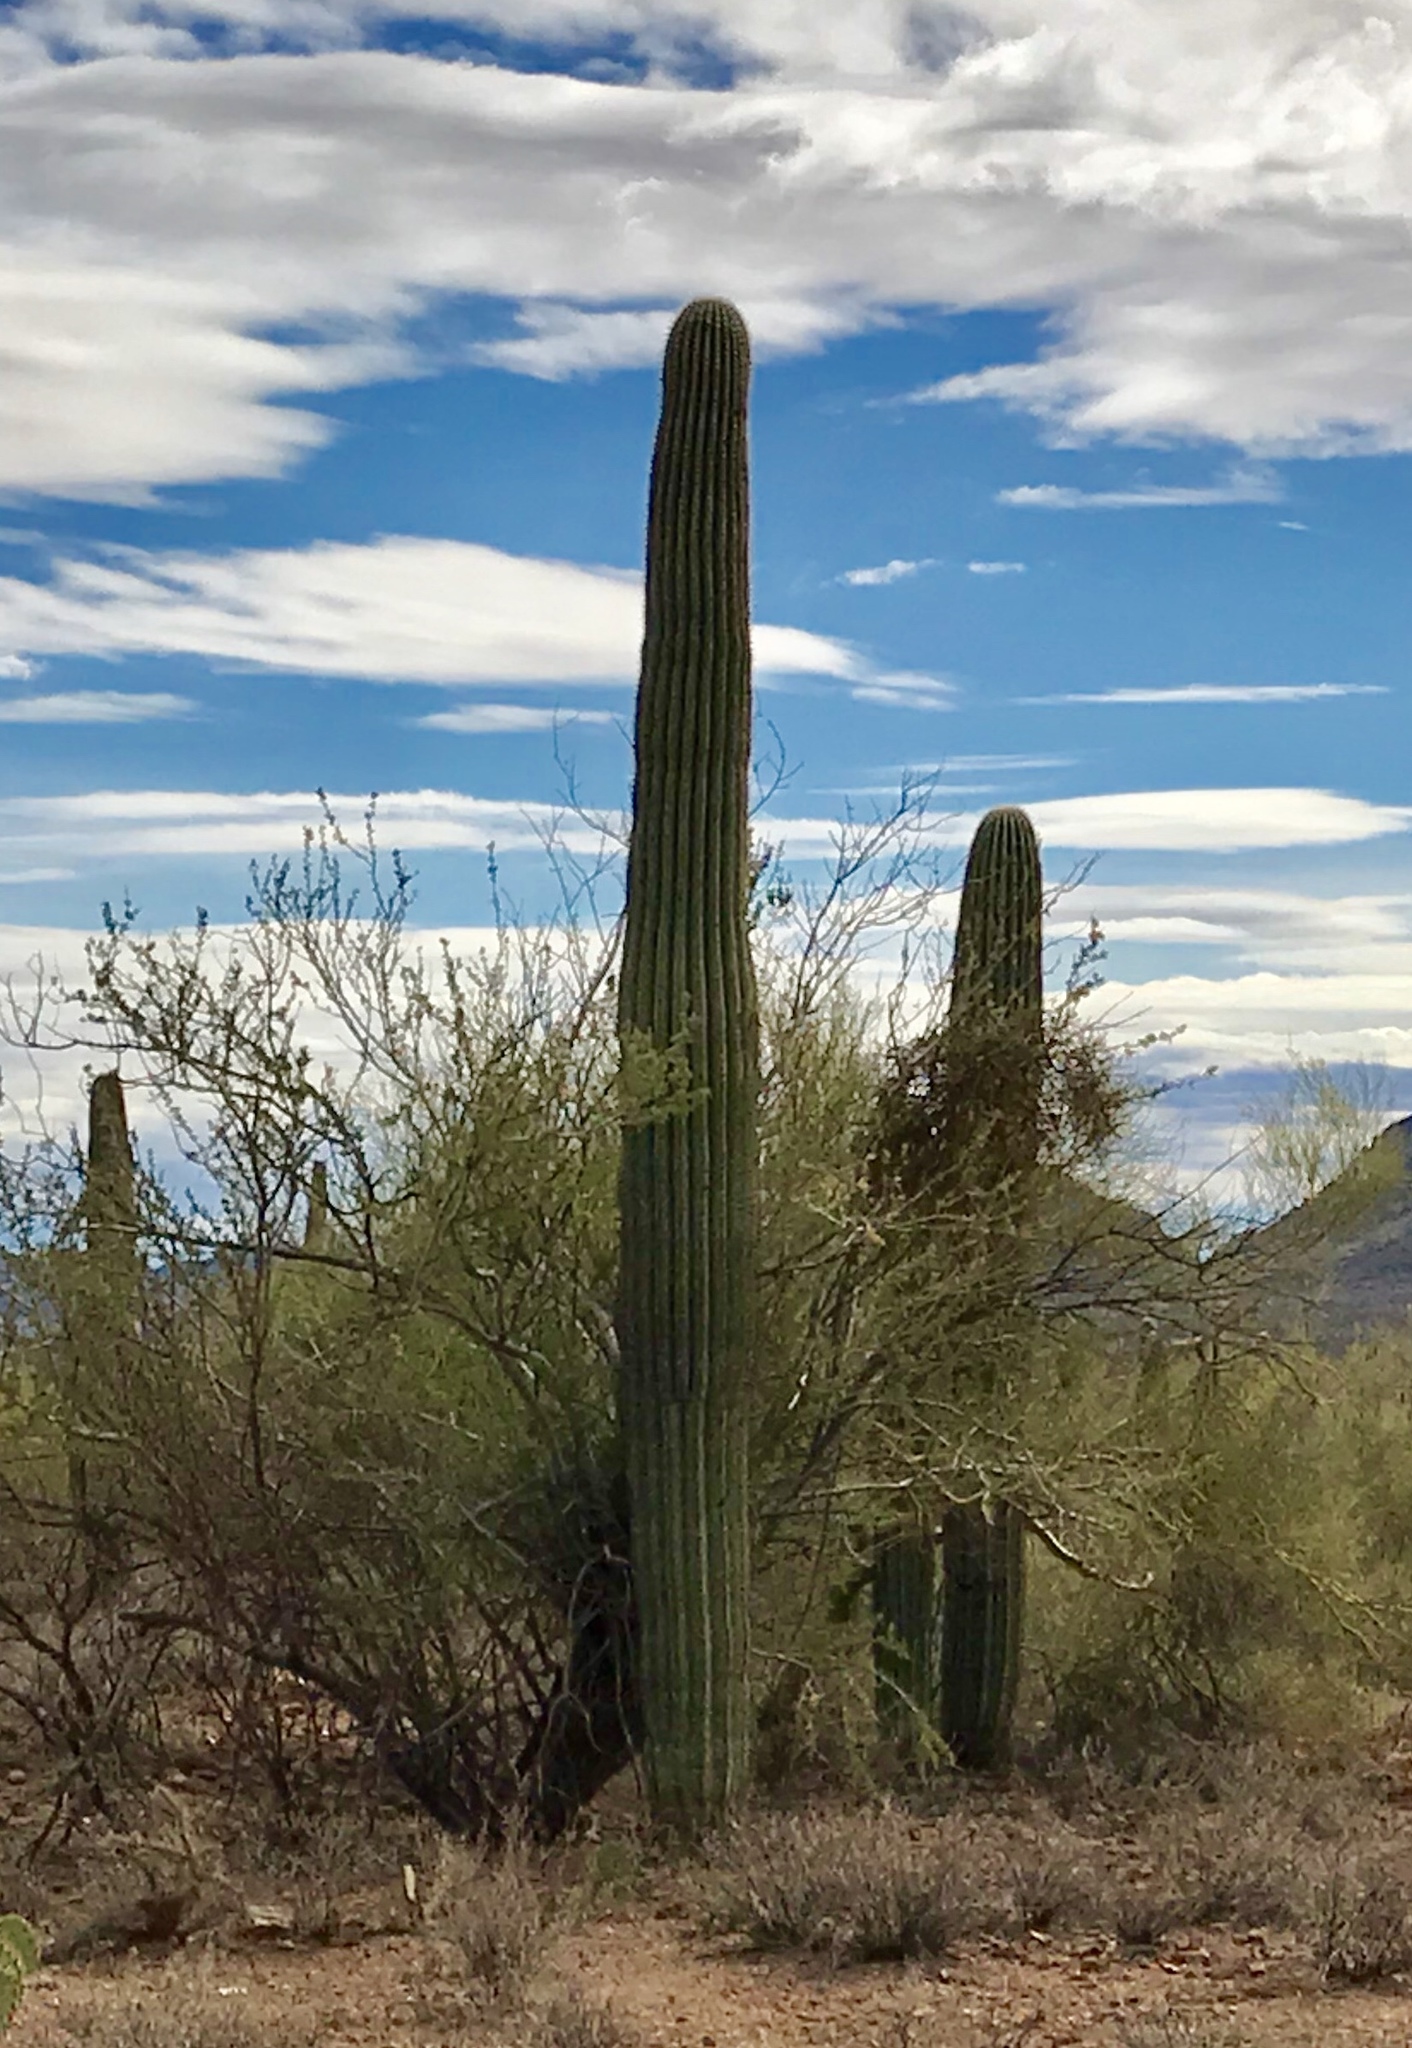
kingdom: Plantae
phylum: Tracheophyta
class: Magnoliopsida
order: Caryophyllales
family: Cactaceae
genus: Carnegiea
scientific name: Carnegiea gigantea
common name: Saguaro
